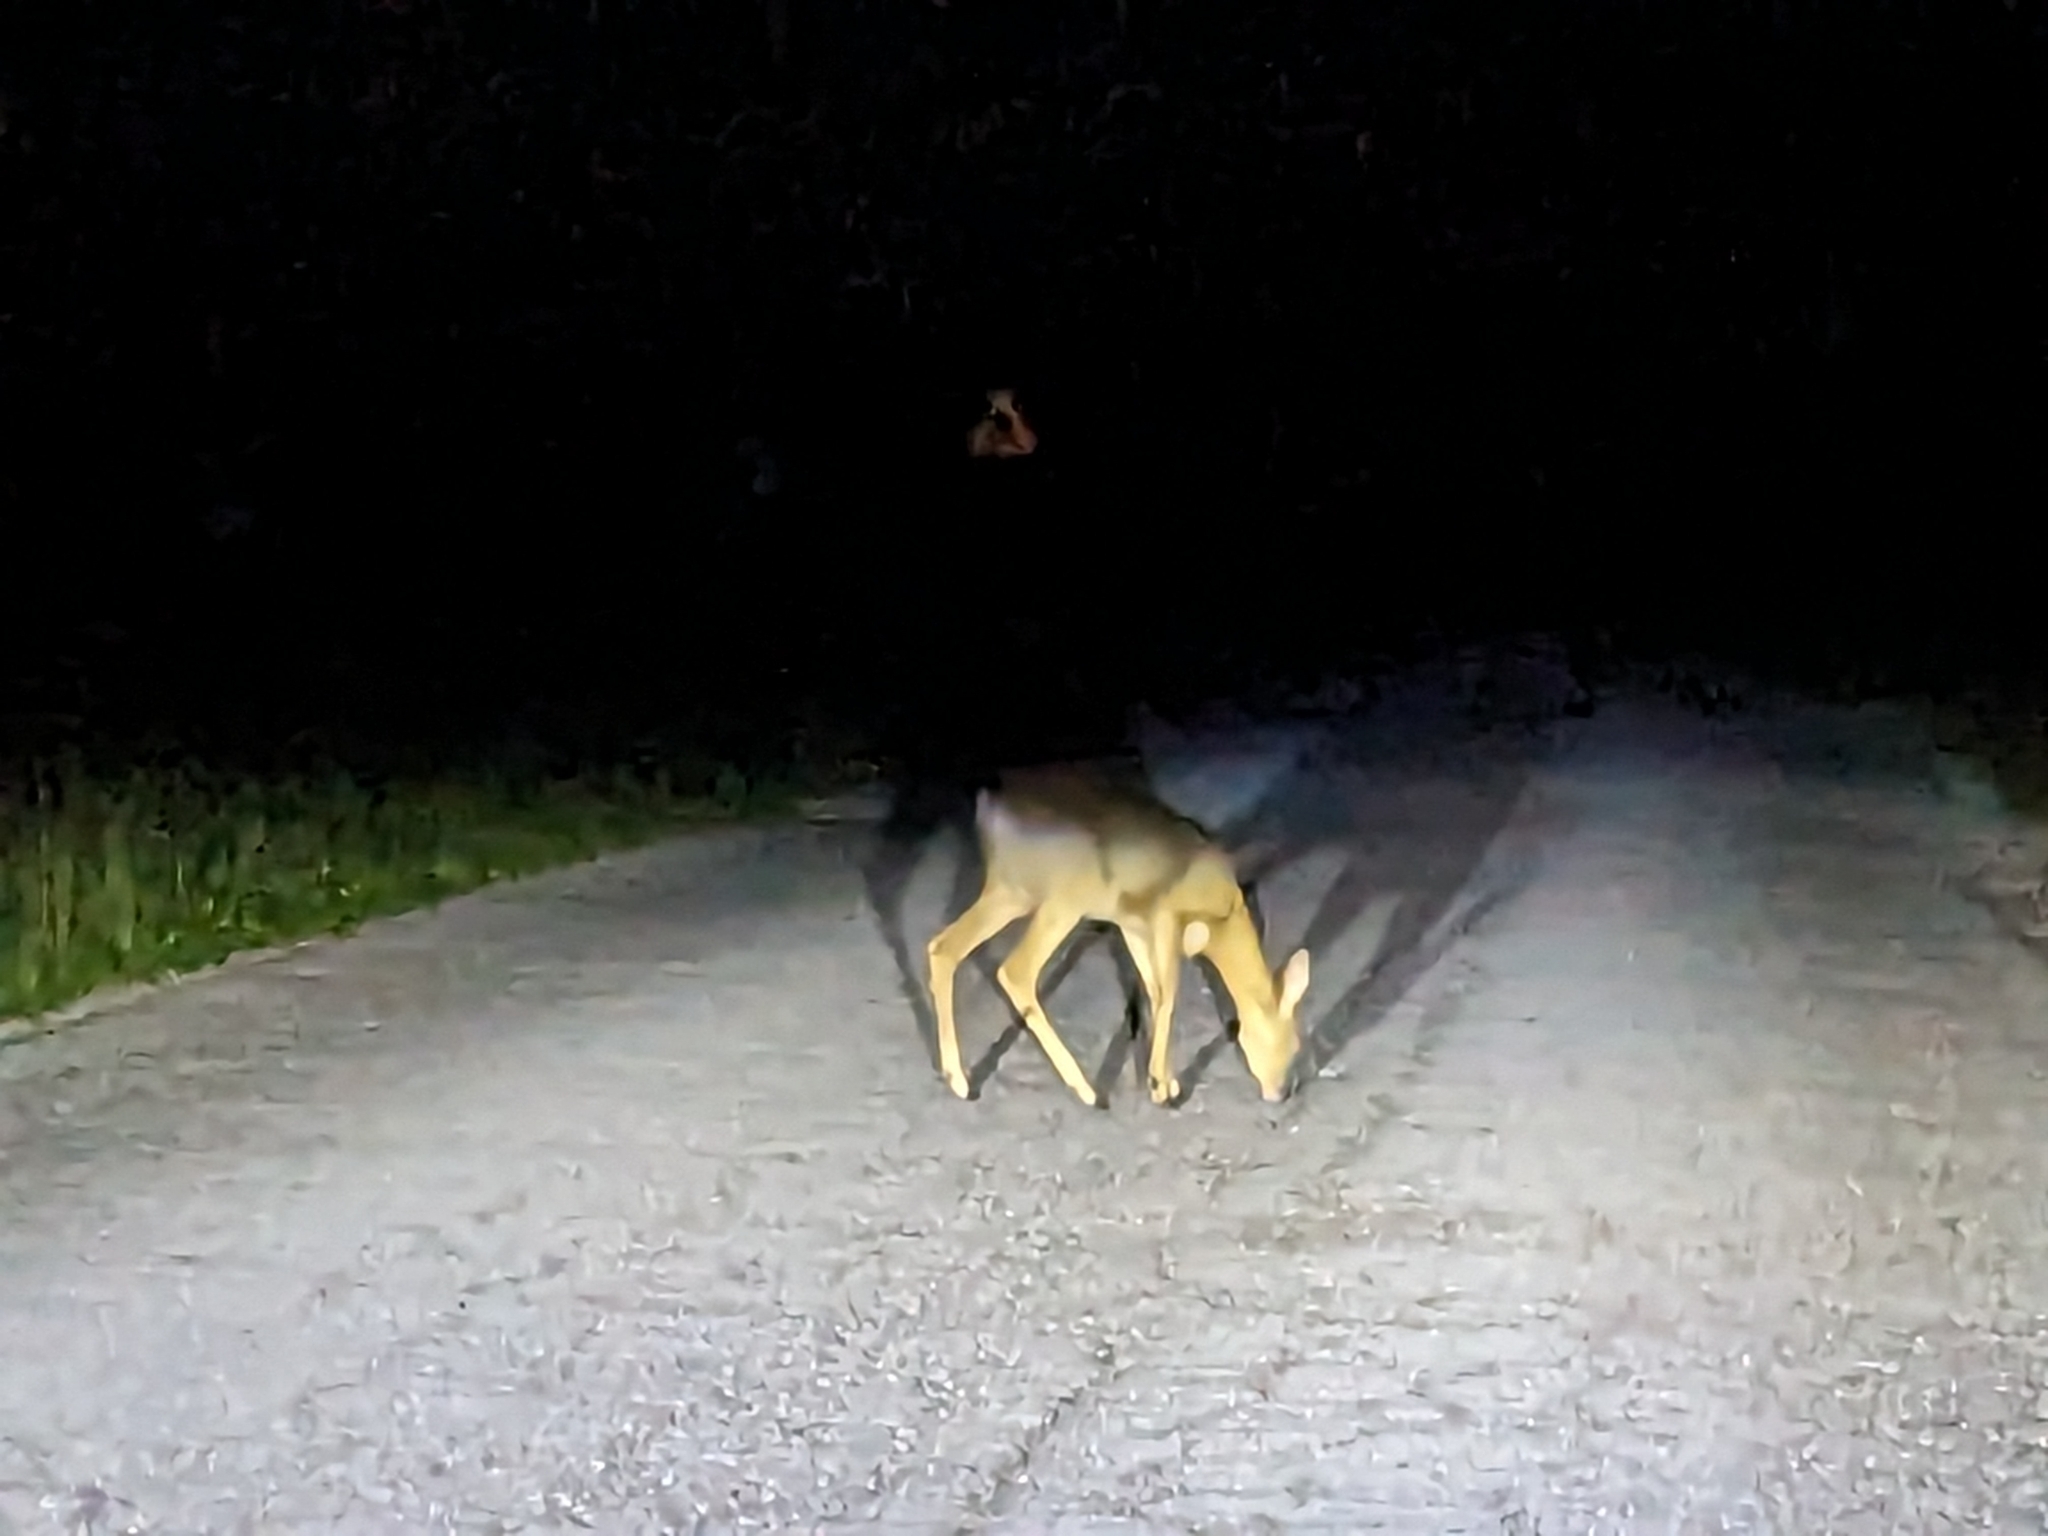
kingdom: Animalia
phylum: Chordata
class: Mammalia
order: Artiodactyla
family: Cervidae
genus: Capreolus
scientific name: Capreolus capreolus
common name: Western roe deer
